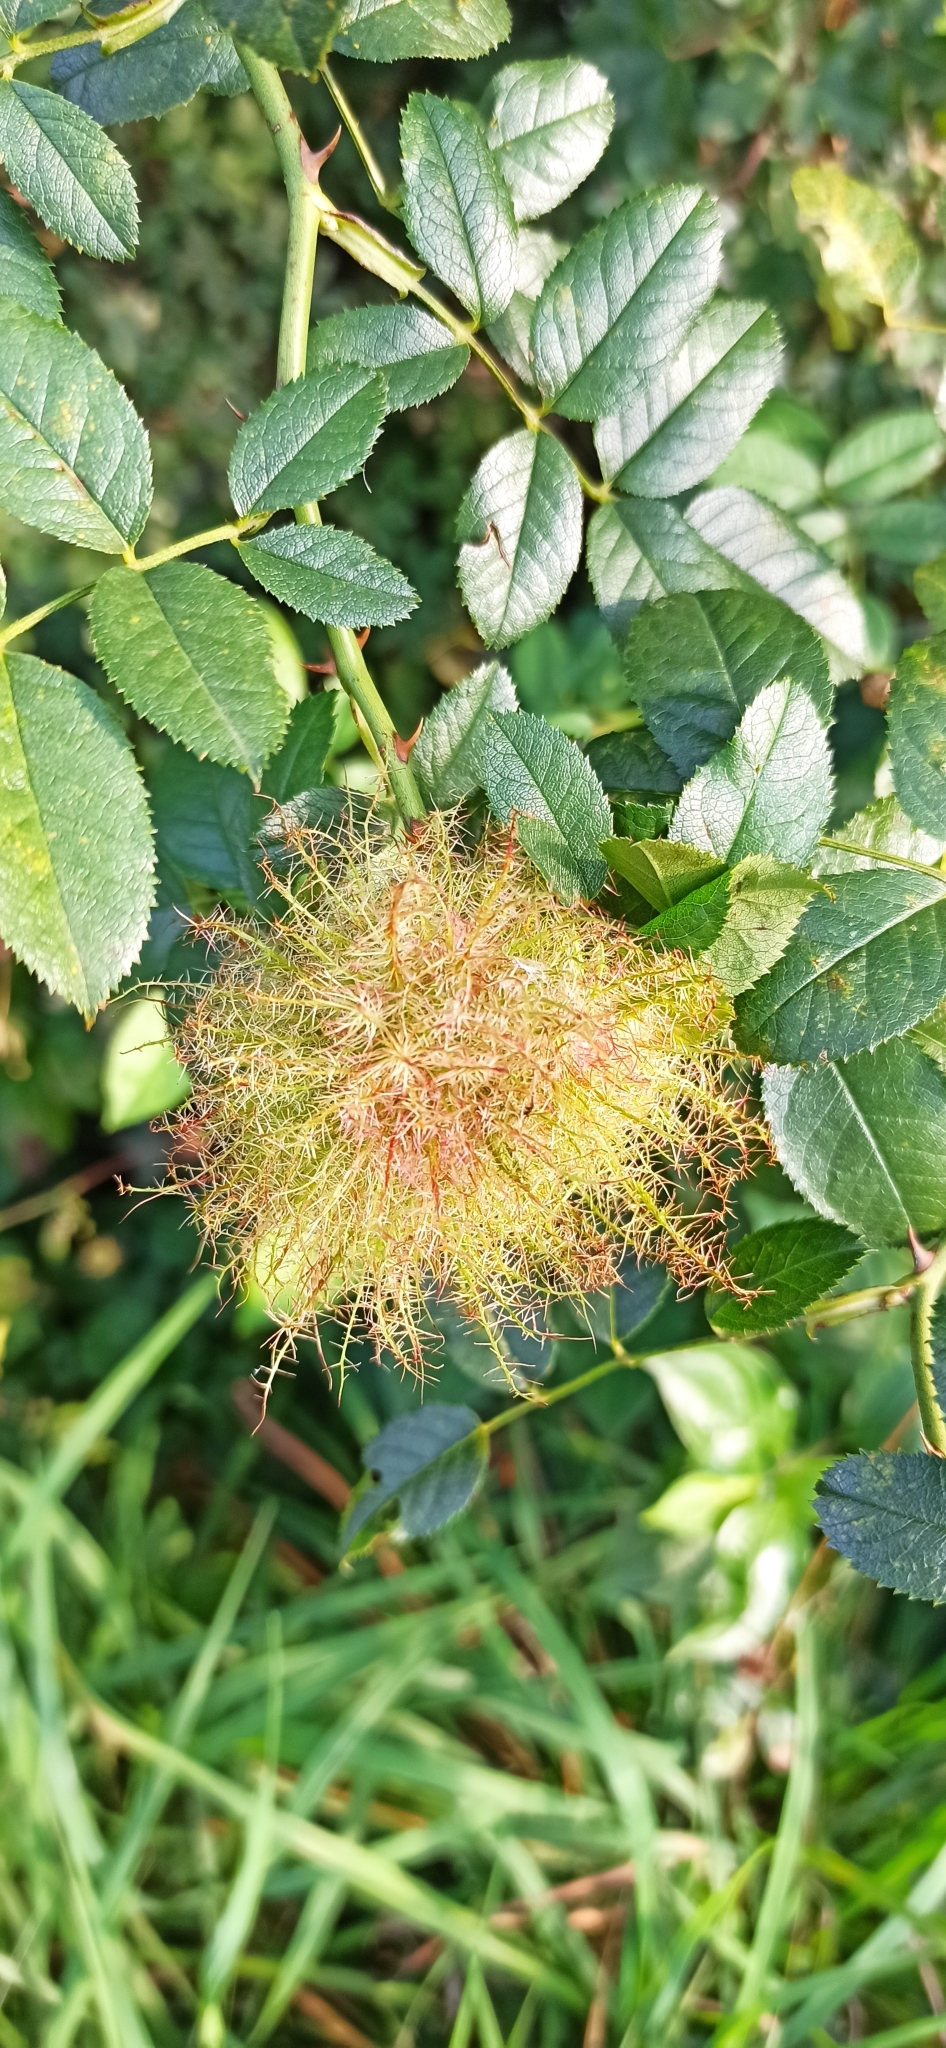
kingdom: Animalia
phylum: Arthropoda
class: Insecta
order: Hymenoptera
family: Cynipidae
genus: Diplolepis
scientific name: Diplolepis rosae
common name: Bedeguar gall
